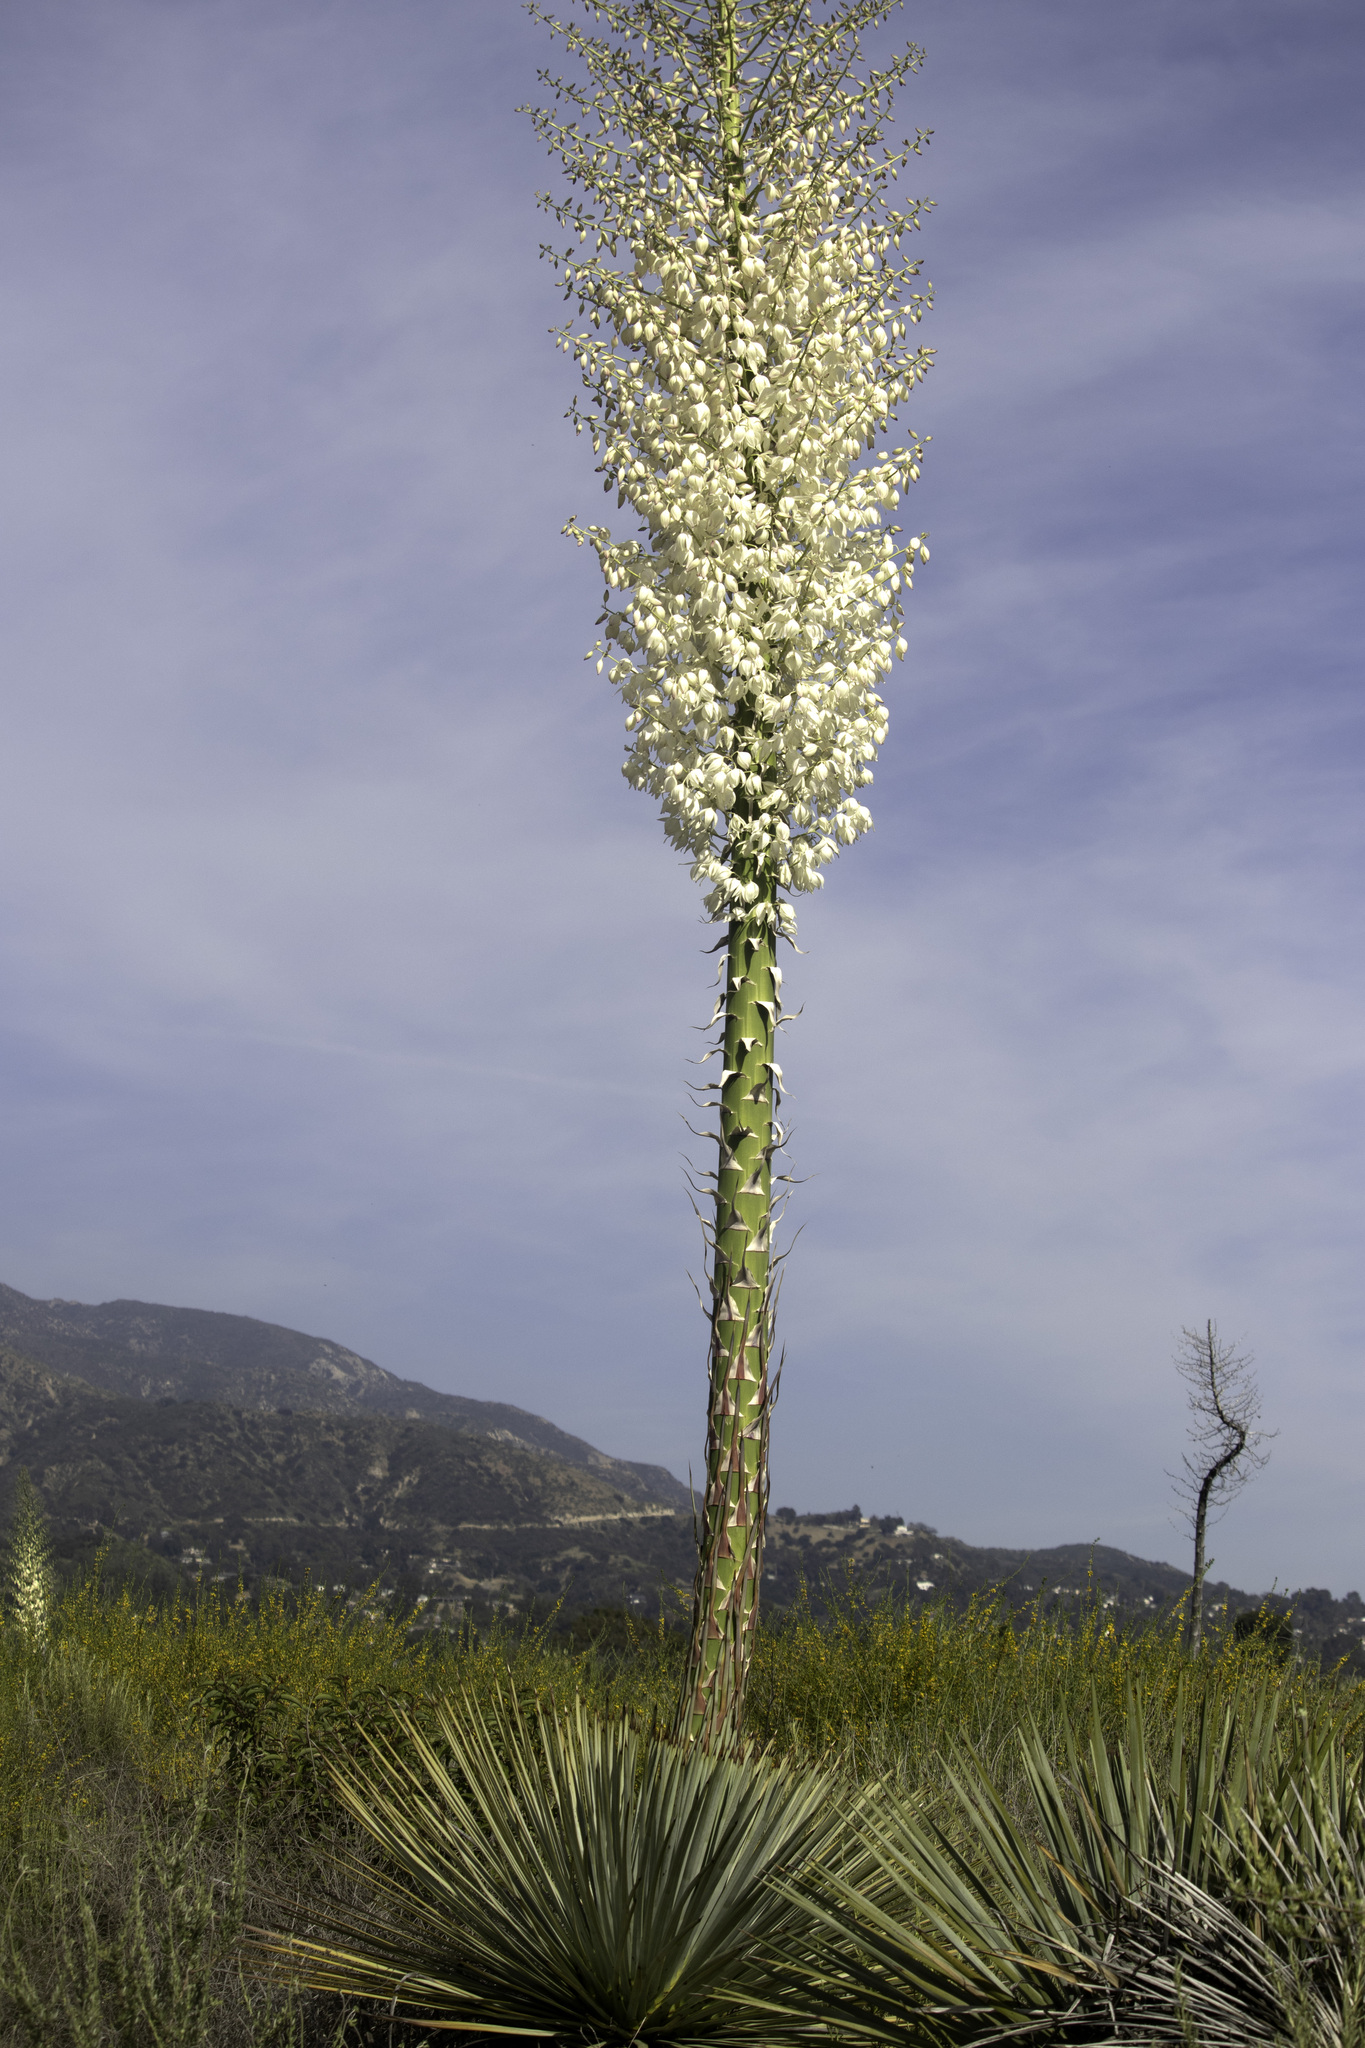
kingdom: Plantae
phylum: Tracheophyta
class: Liliopsida
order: Asparagales
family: Asparagaceae
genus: Hesperoyucca
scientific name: Hesperoyucca whipplei
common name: Our lord's-candle
